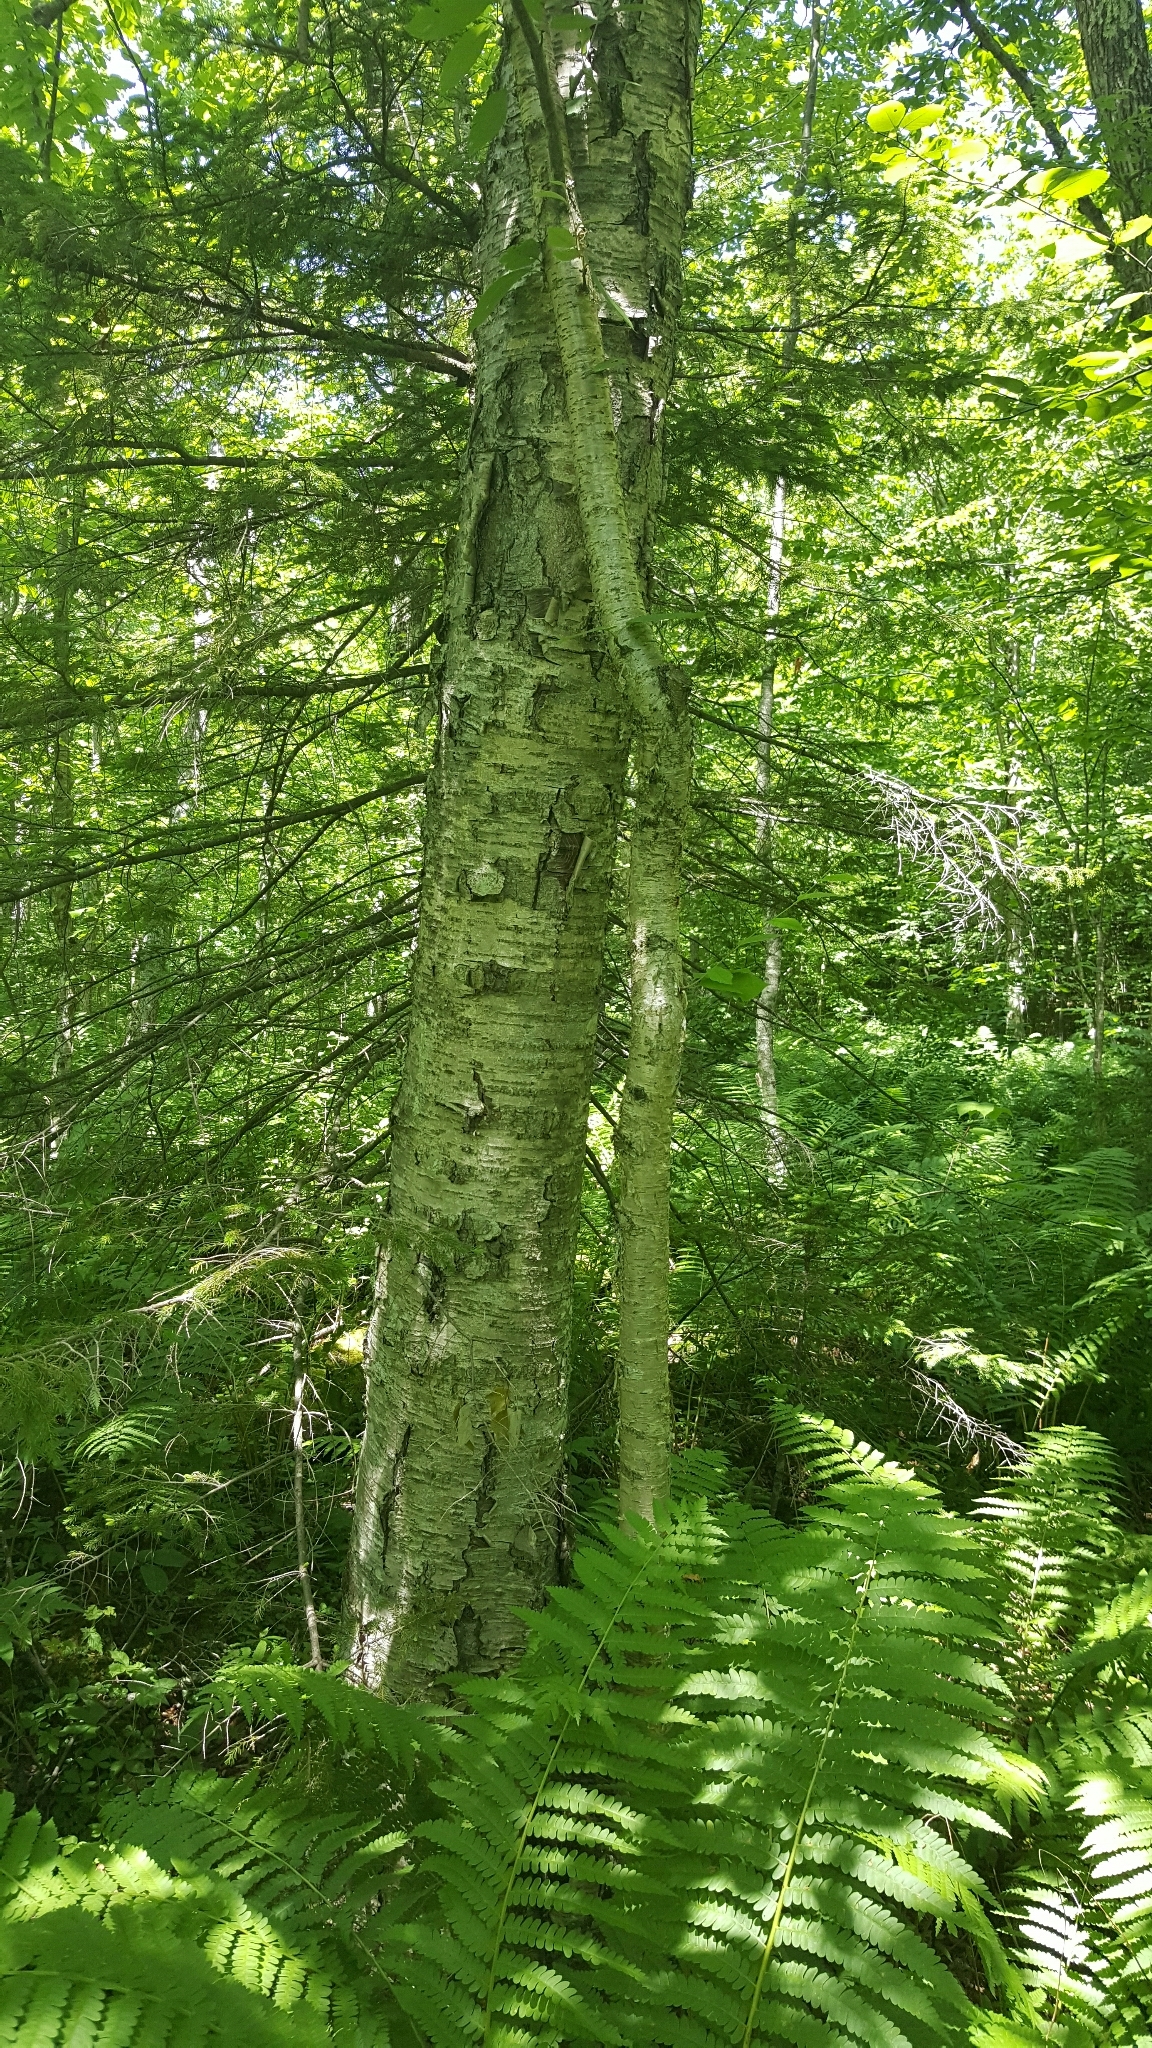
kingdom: Plantae
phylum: Tracheophyta
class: Magnoliopsida
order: Fagales
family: Betulaceae
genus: Betula
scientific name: Betula alleghaniensis
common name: Yellow birch
